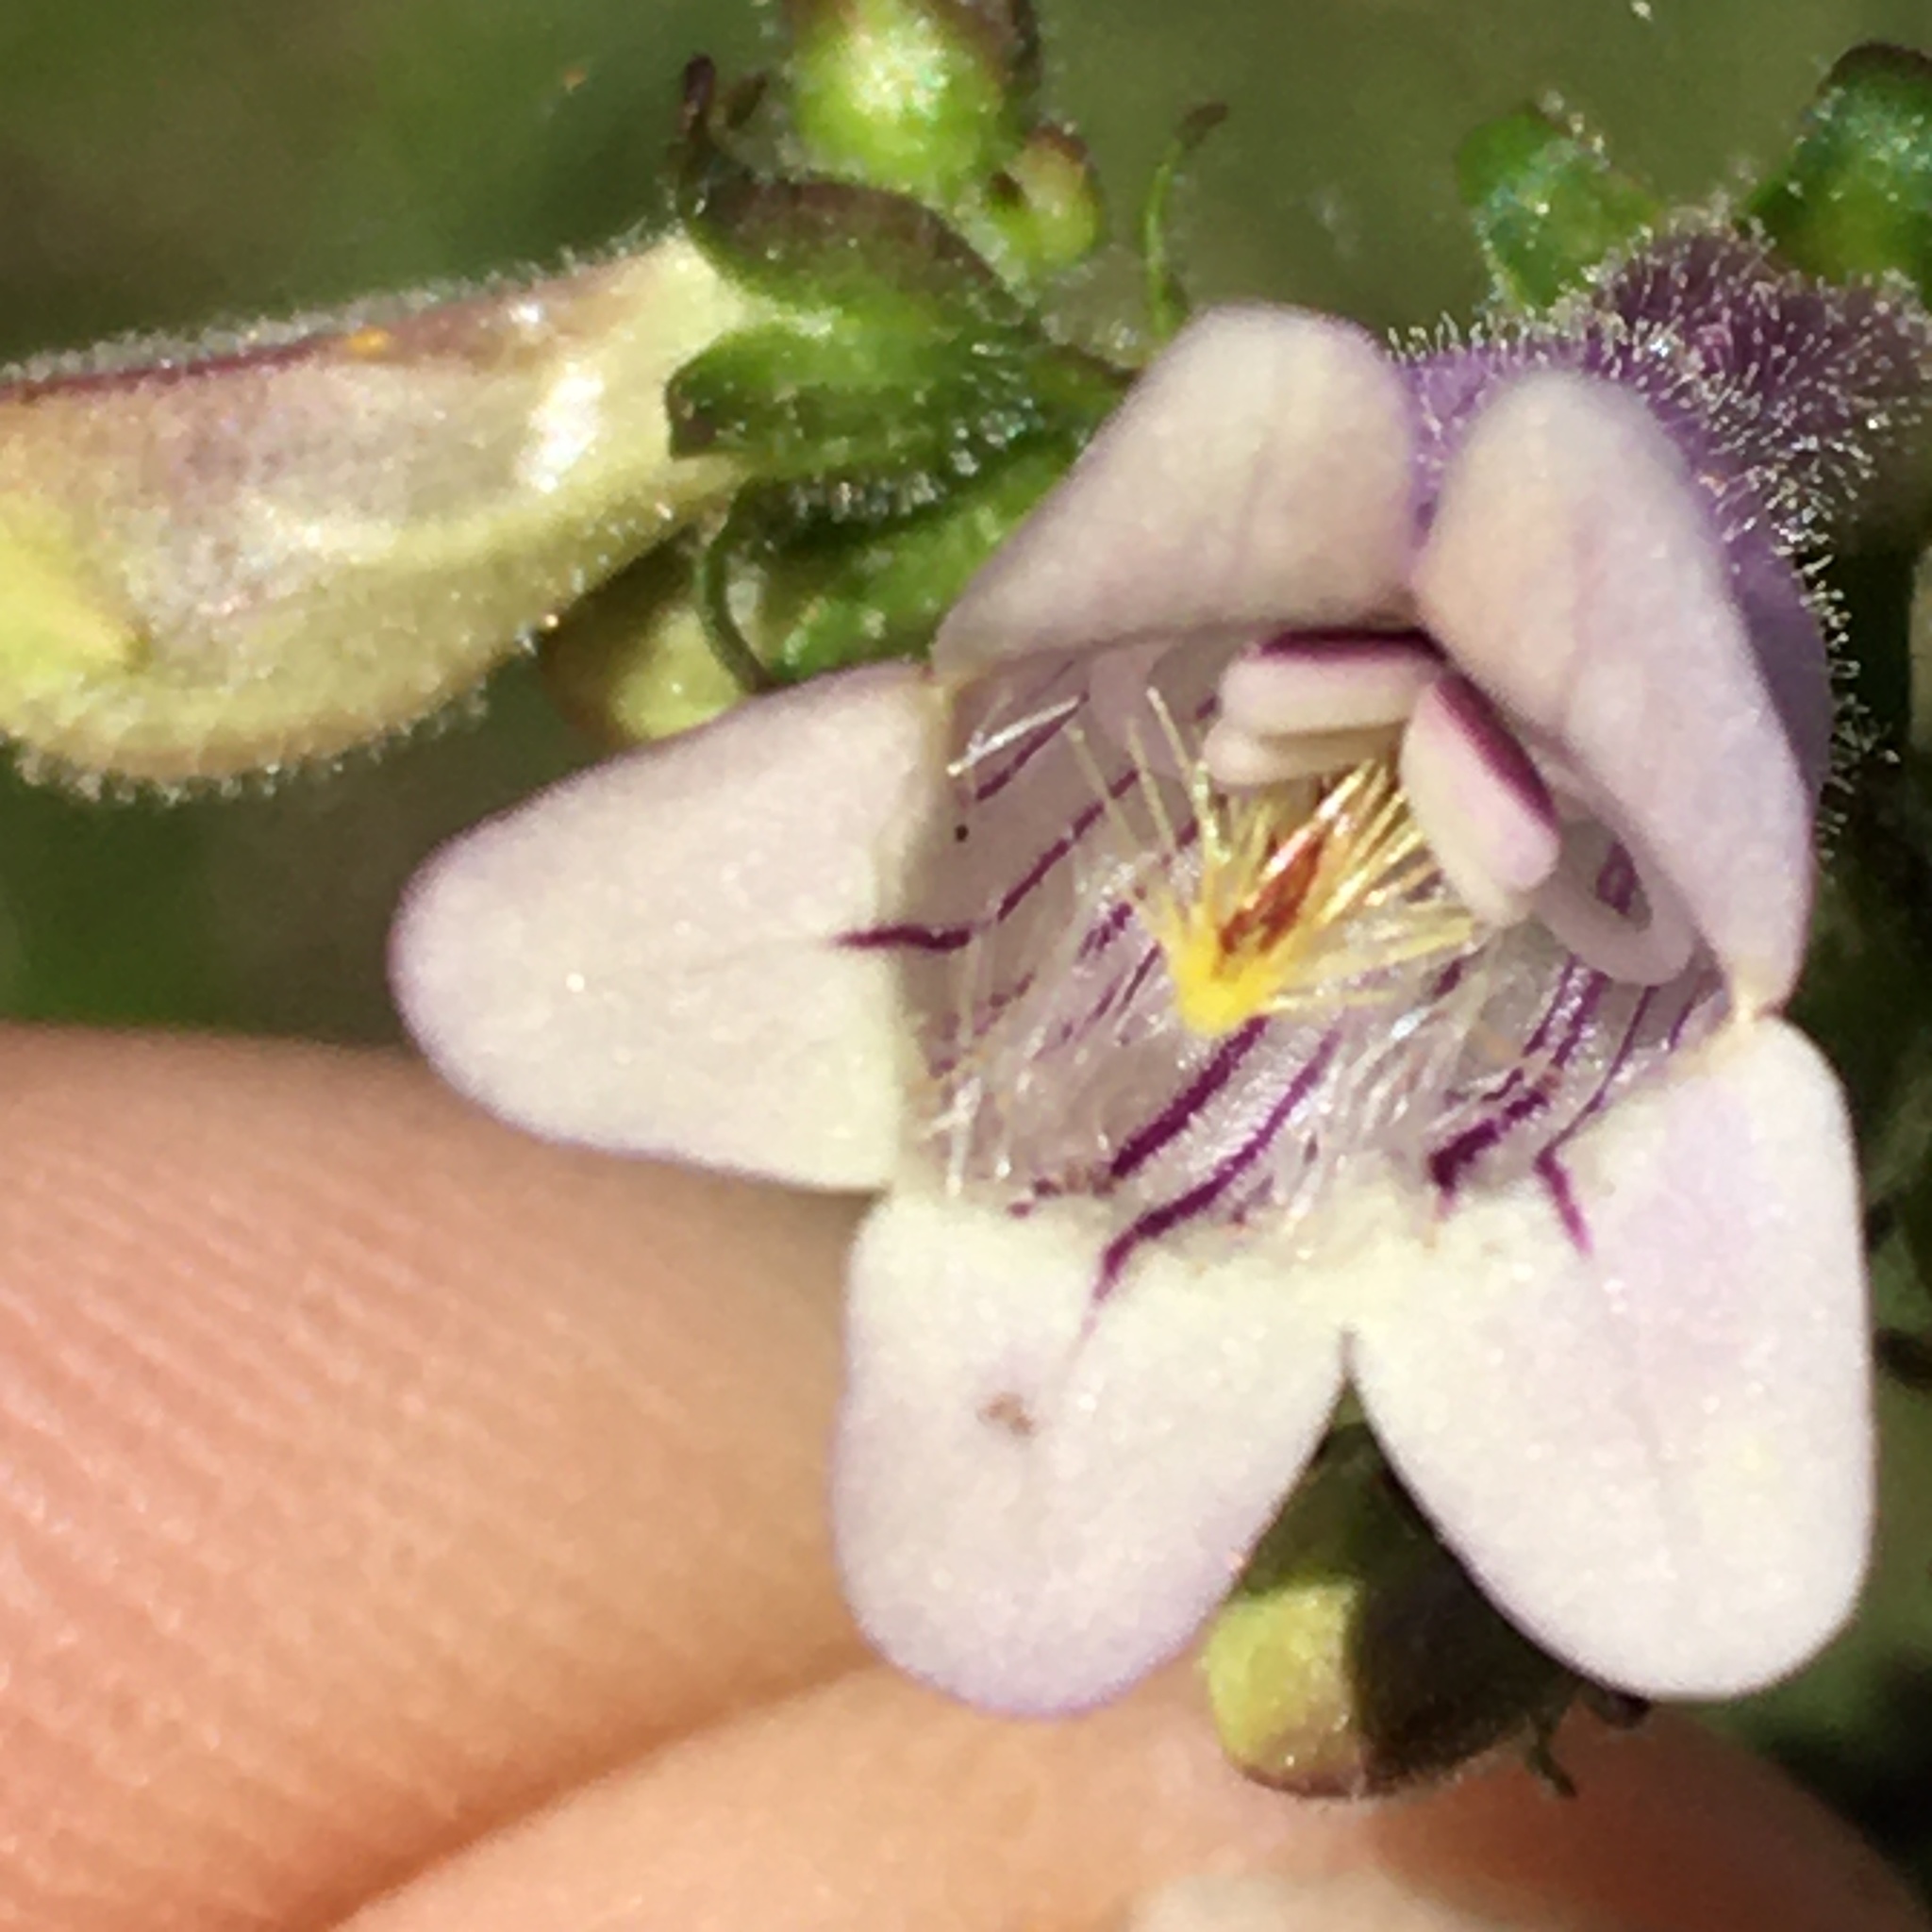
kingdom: Plantae
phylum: Tracheophyta
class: Magnoliopsida
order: Lamiales
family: Plantaginaceae
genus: Penstemon
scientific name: Penstemon laevigatus
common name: Eastern beardtongue
